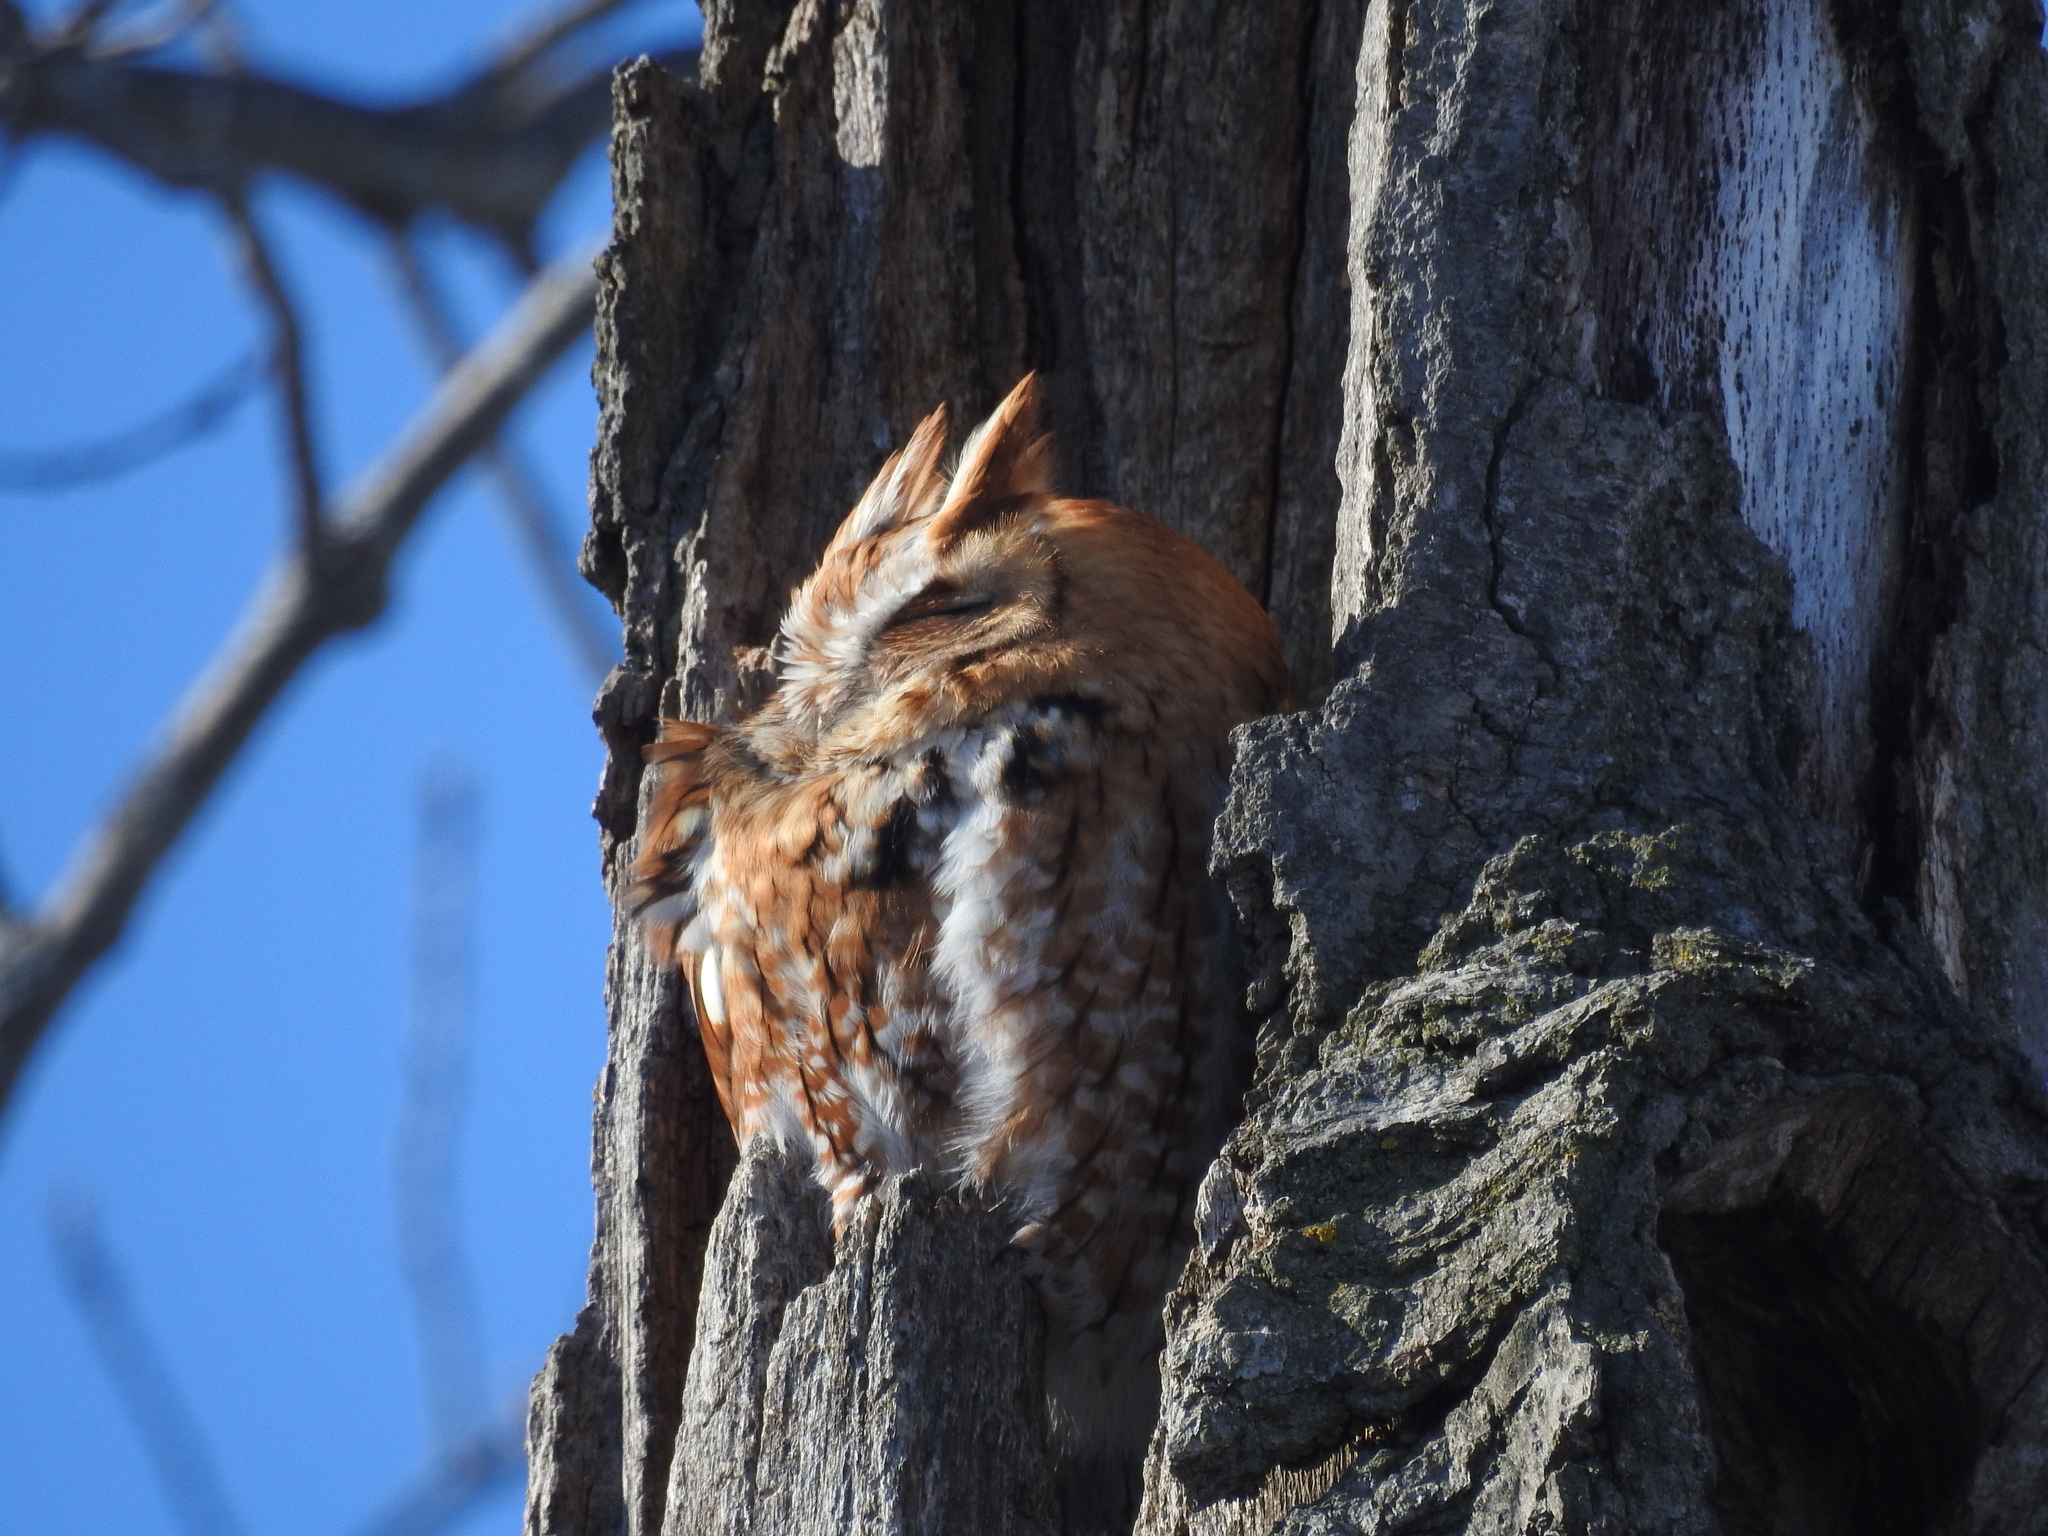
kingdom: Animalia
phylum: Chordata
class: Aves
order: Strigiformes
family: Strigidae
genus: Megascops
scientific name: Megascops asio
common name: Eastern screech-owl
